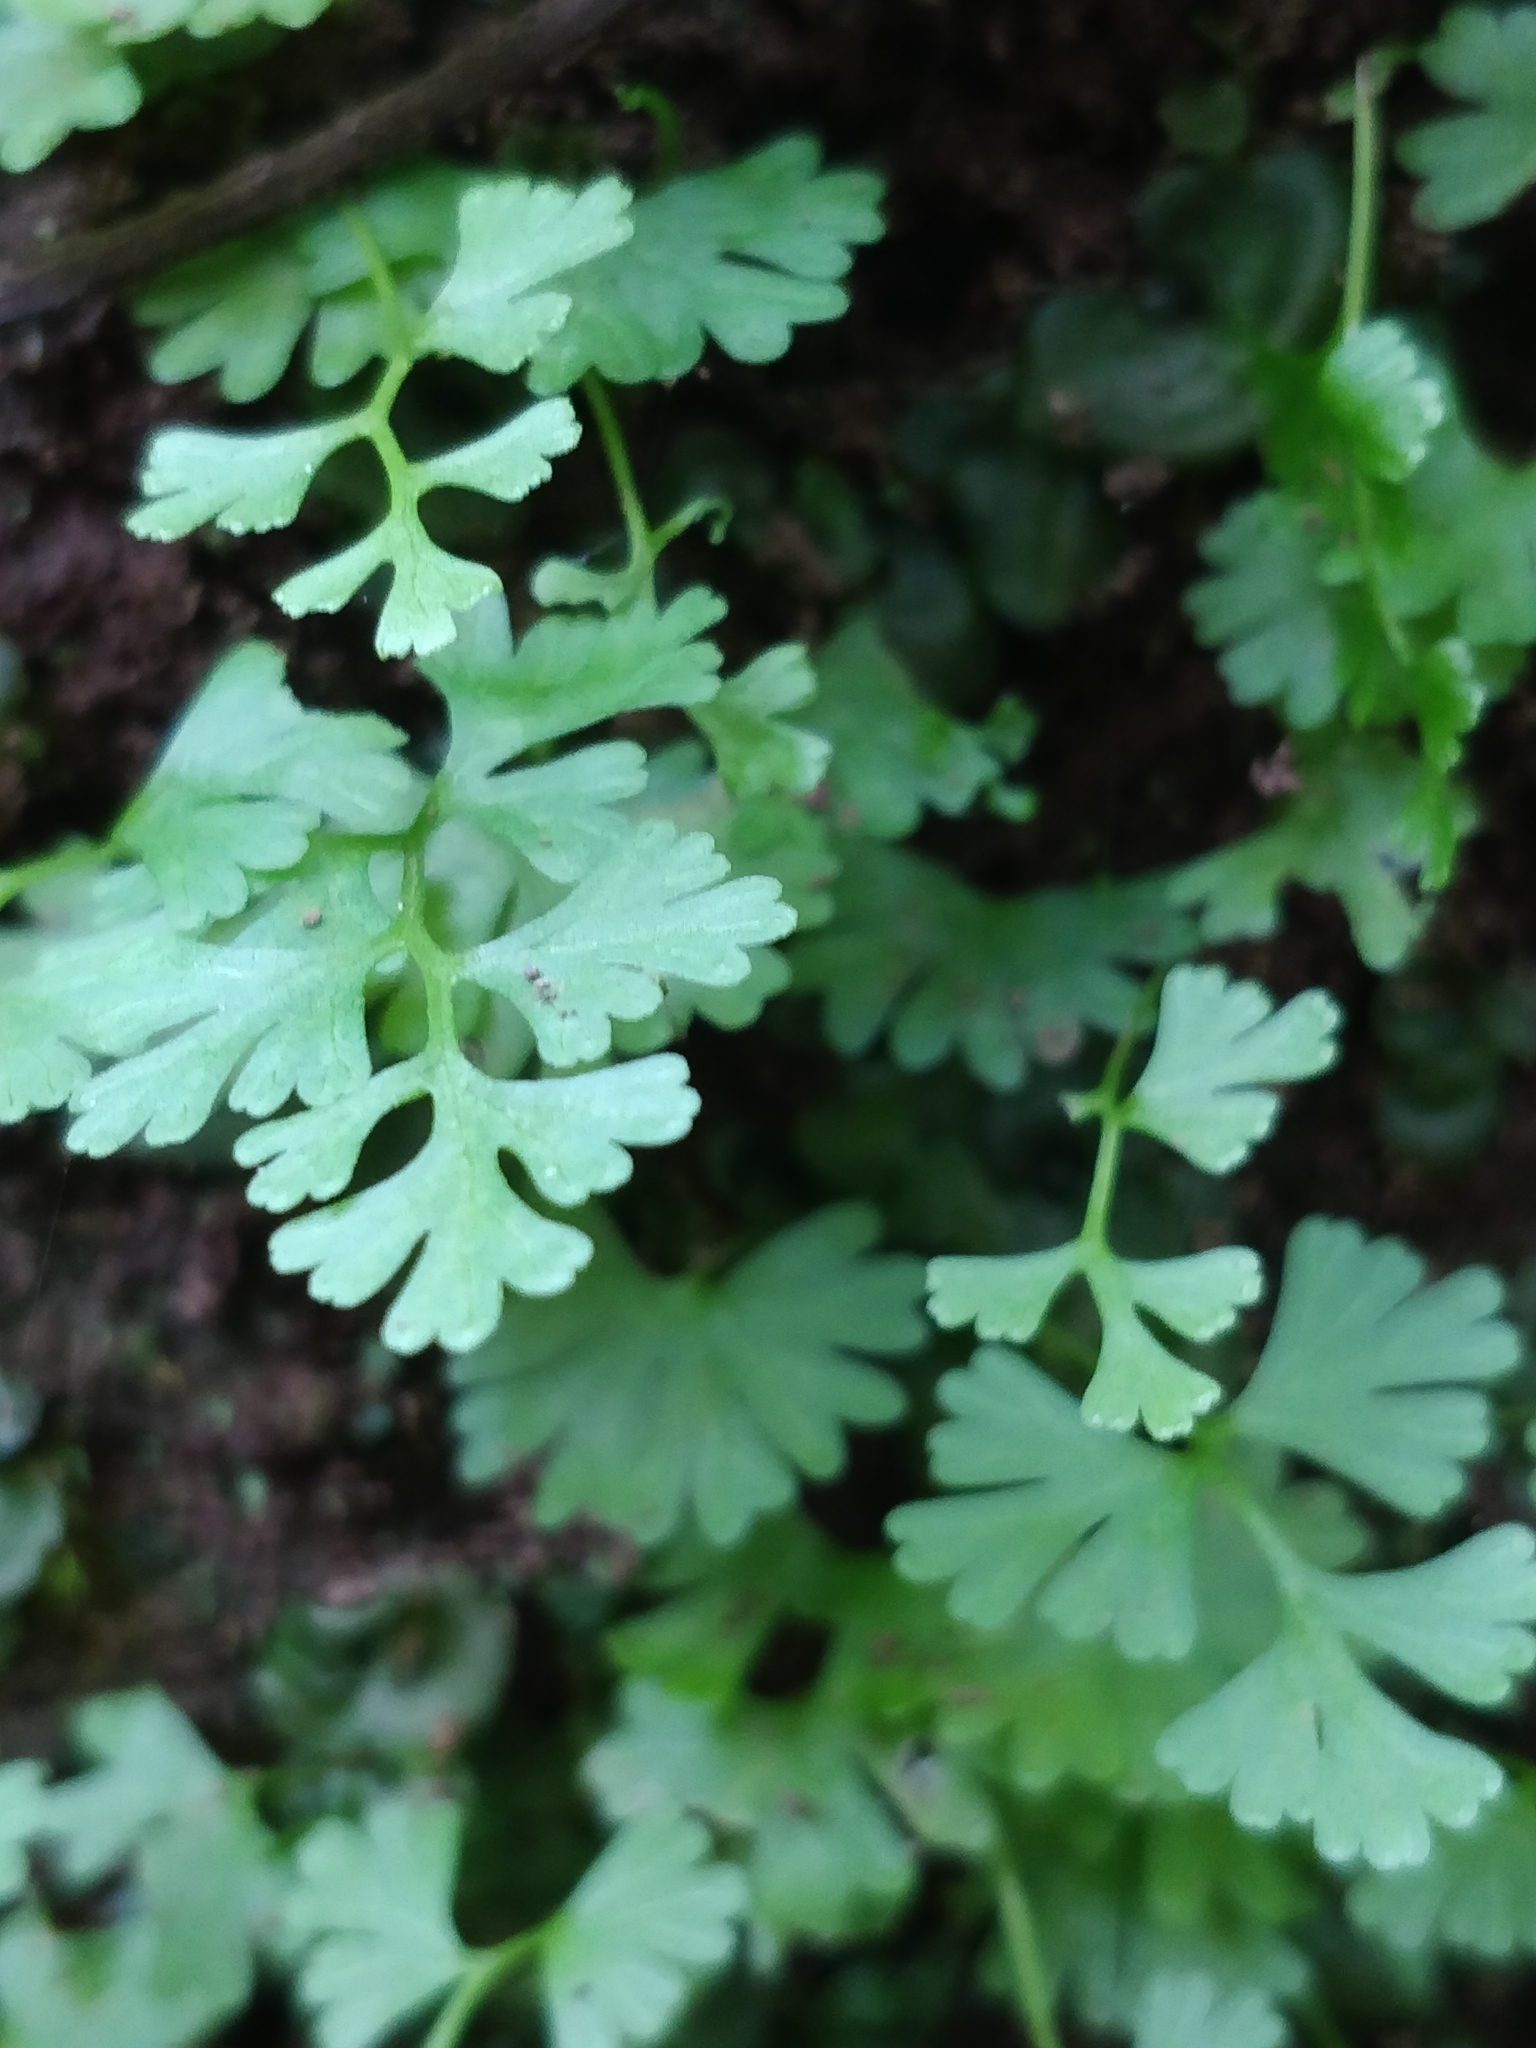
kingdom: Plantae
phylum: Tracheophyta
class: Polypodiopsida
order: Polypodiales
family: Pteridaceae
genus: Anogramma
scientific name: Anogramma leptophylla
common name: Jersey fern
